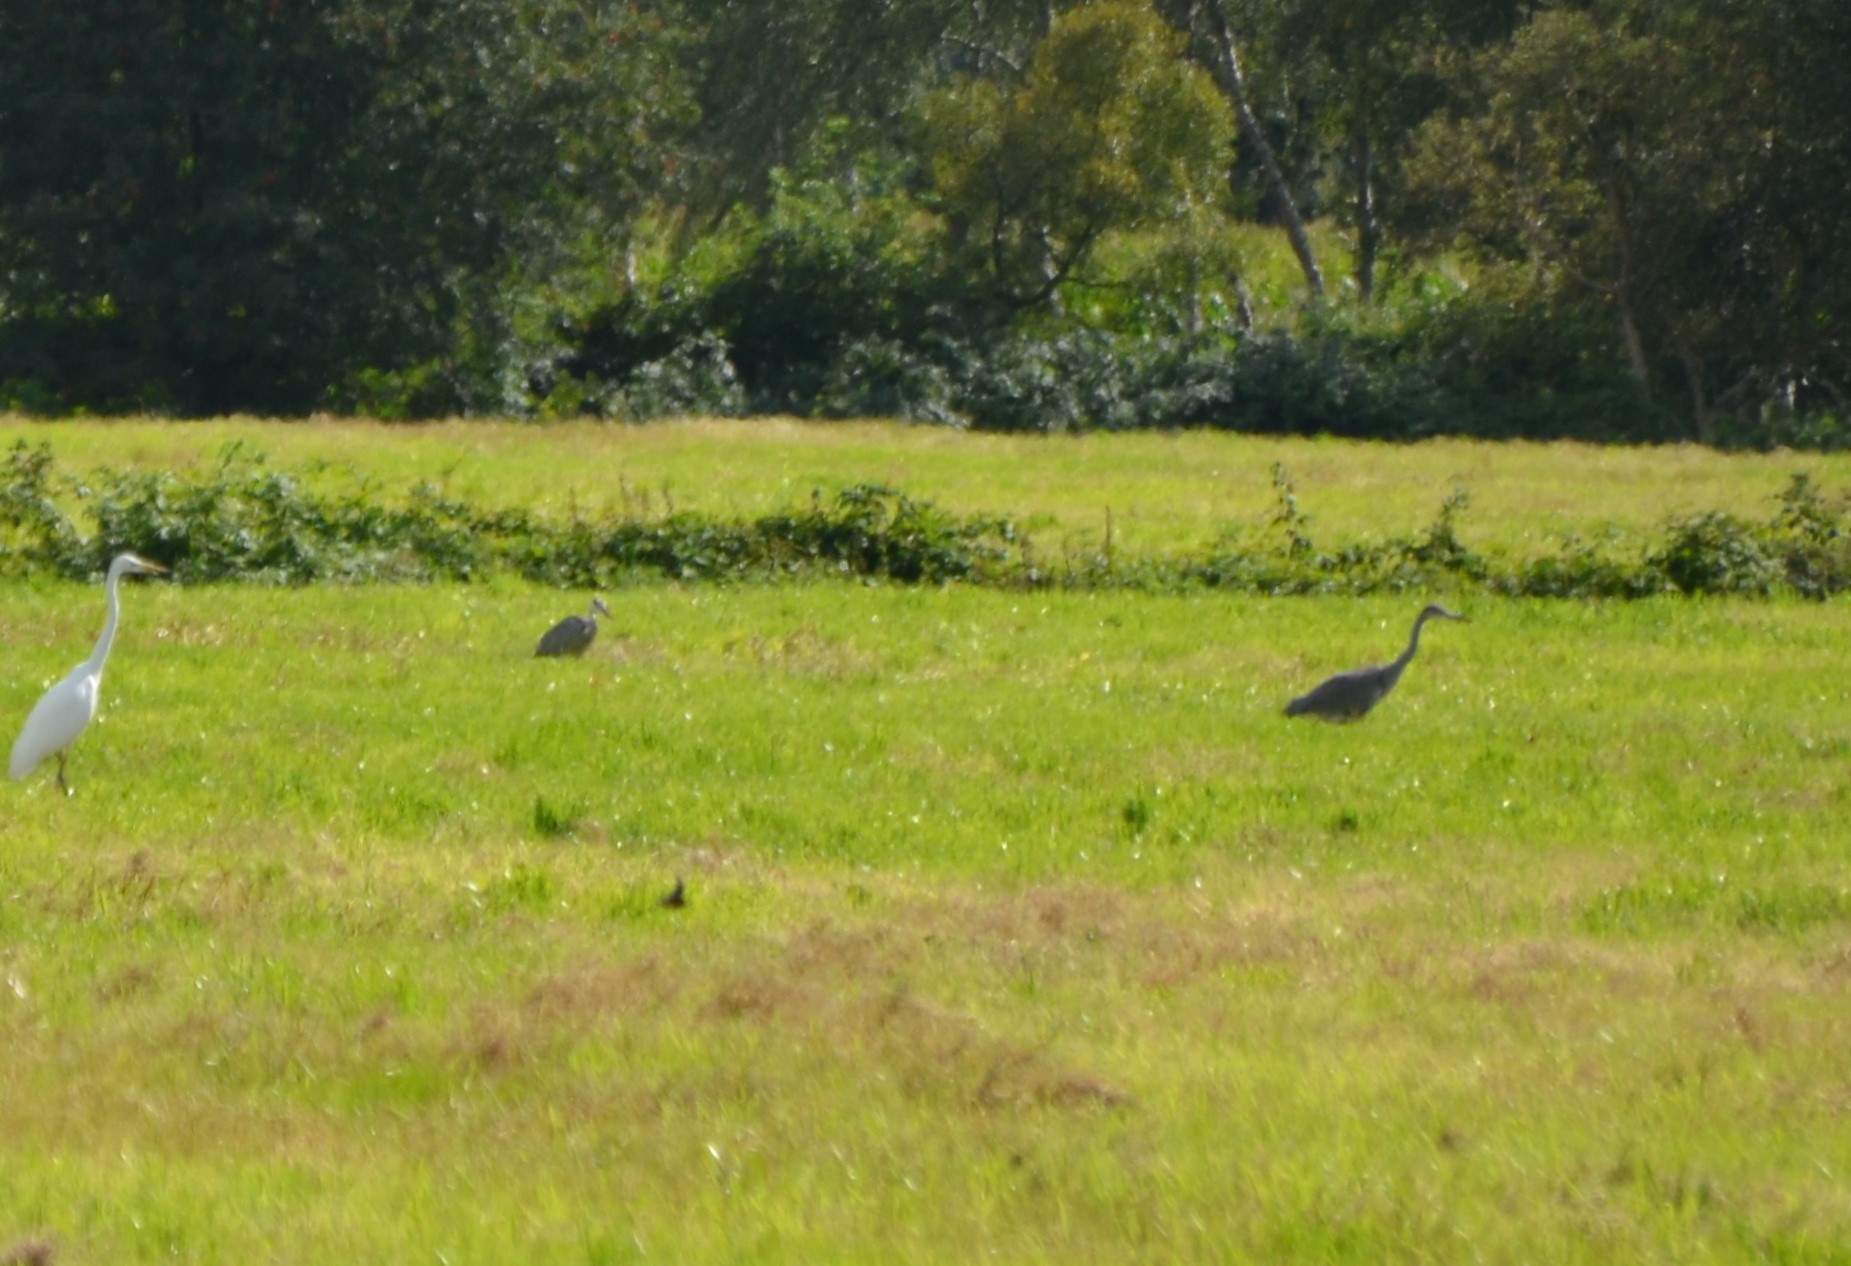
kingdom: Animalia
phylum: Chordata
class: Aves
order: Pelecaniformes
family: Ardeidae
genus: Ardea
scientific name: Ardea cinerea
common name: Grey heron
